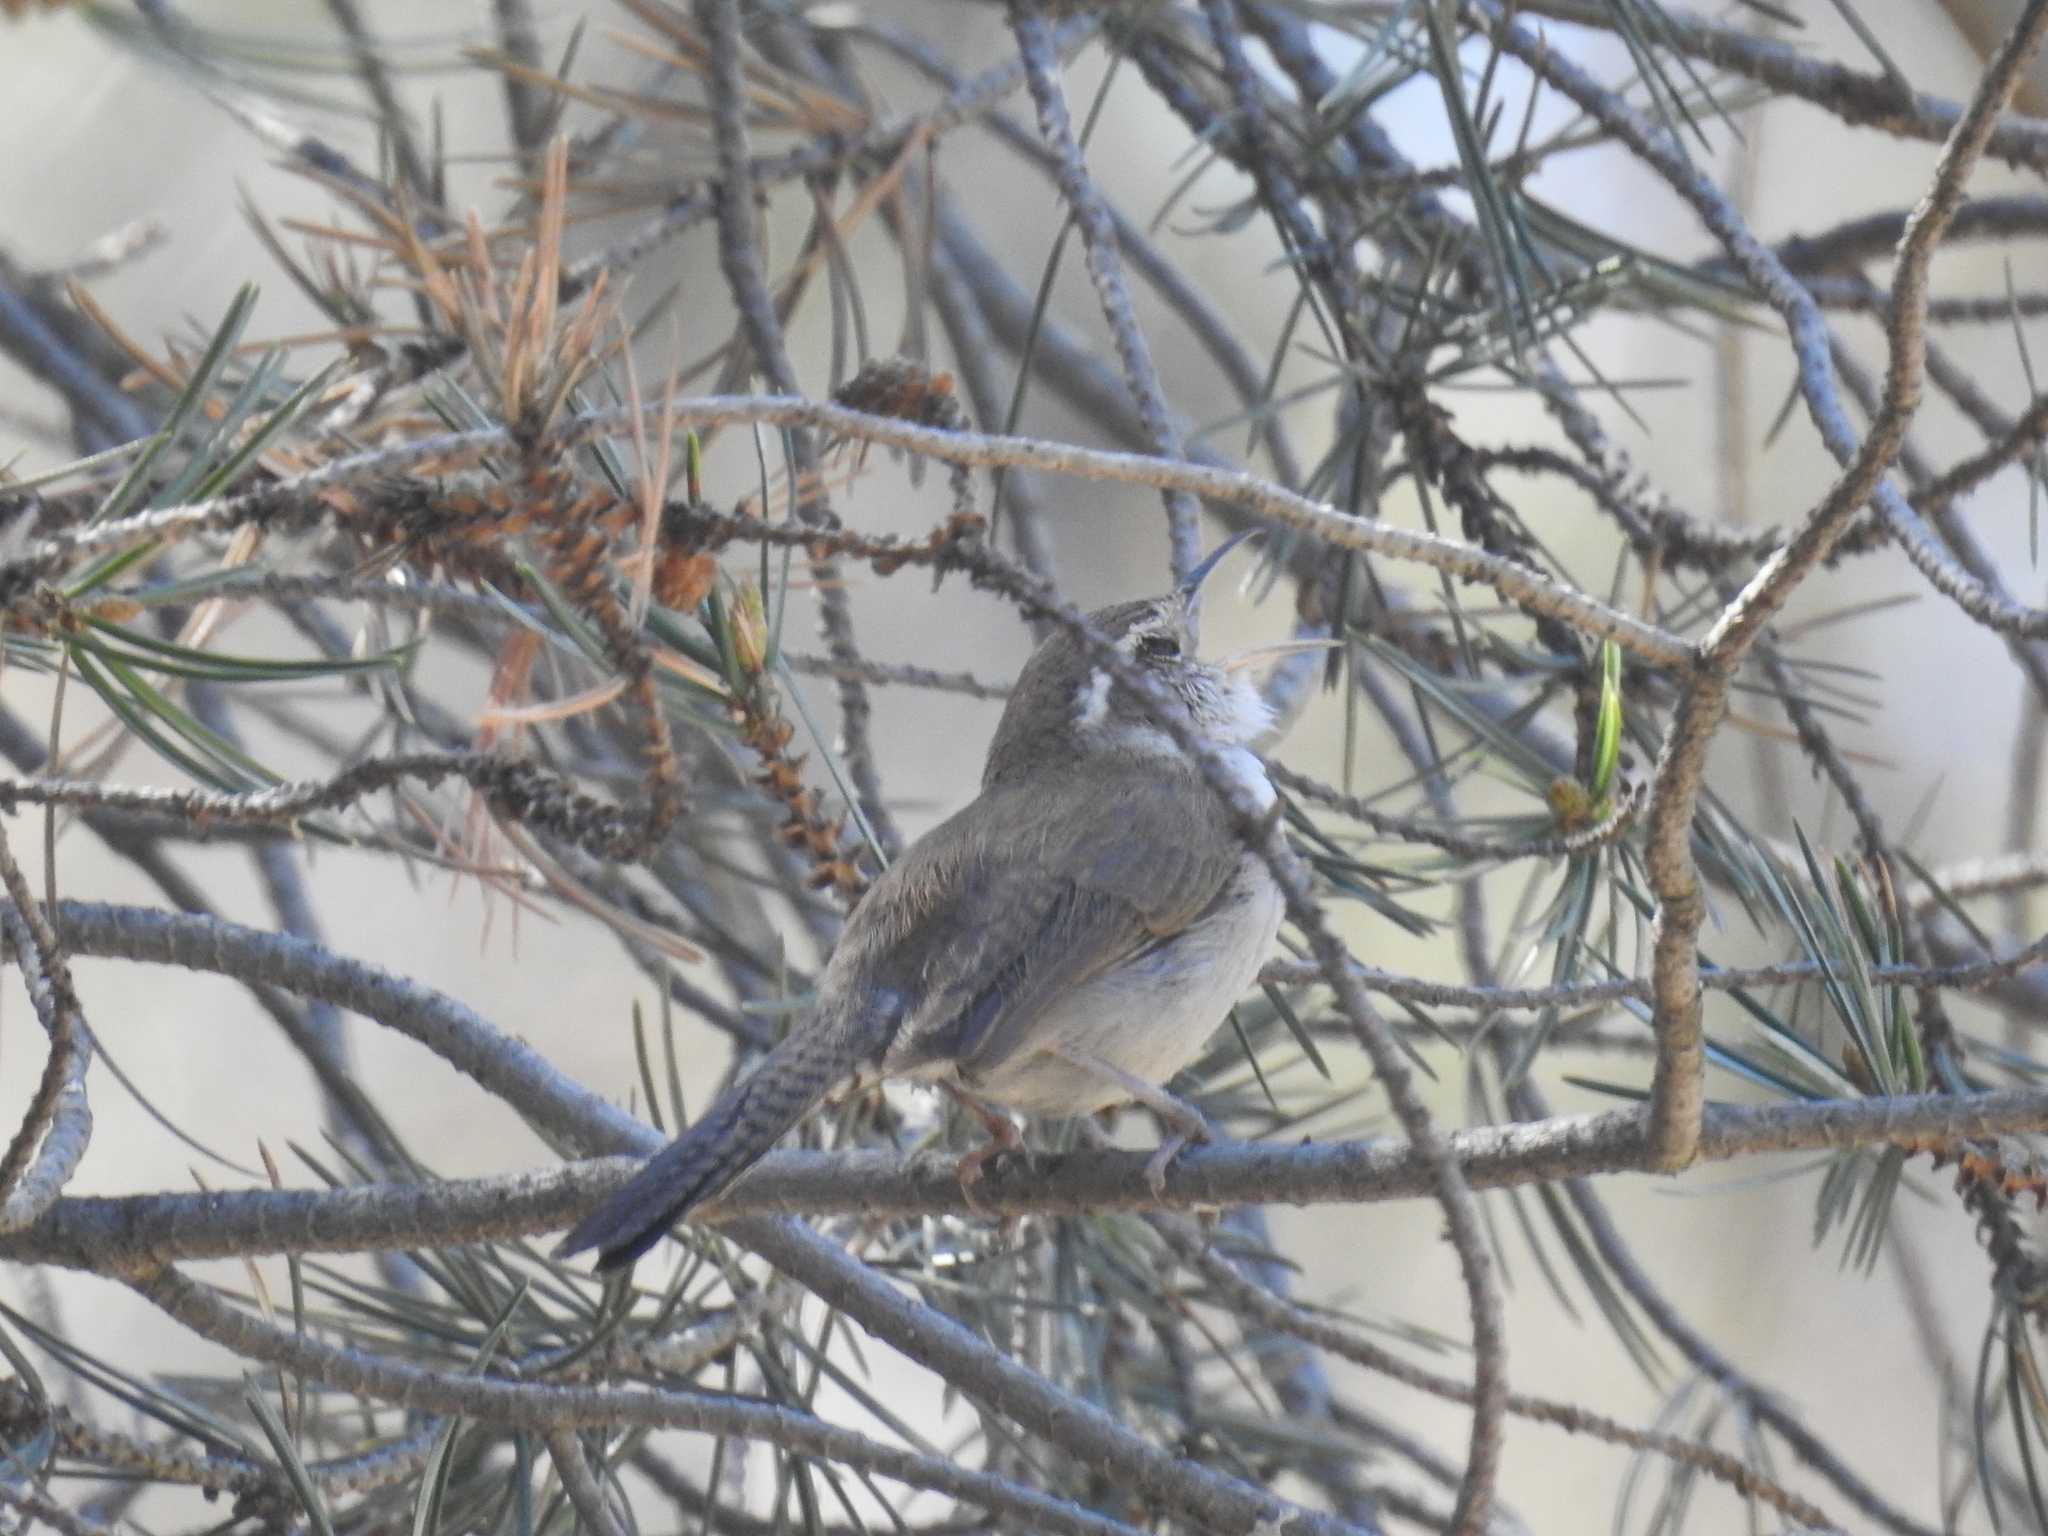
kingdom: Animalia
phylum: Chordata
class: Aves
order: Passeriformes
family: Troglodytidae
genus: Thryomanes
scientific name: Thryomanes bewickii
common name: Bewick's wren
